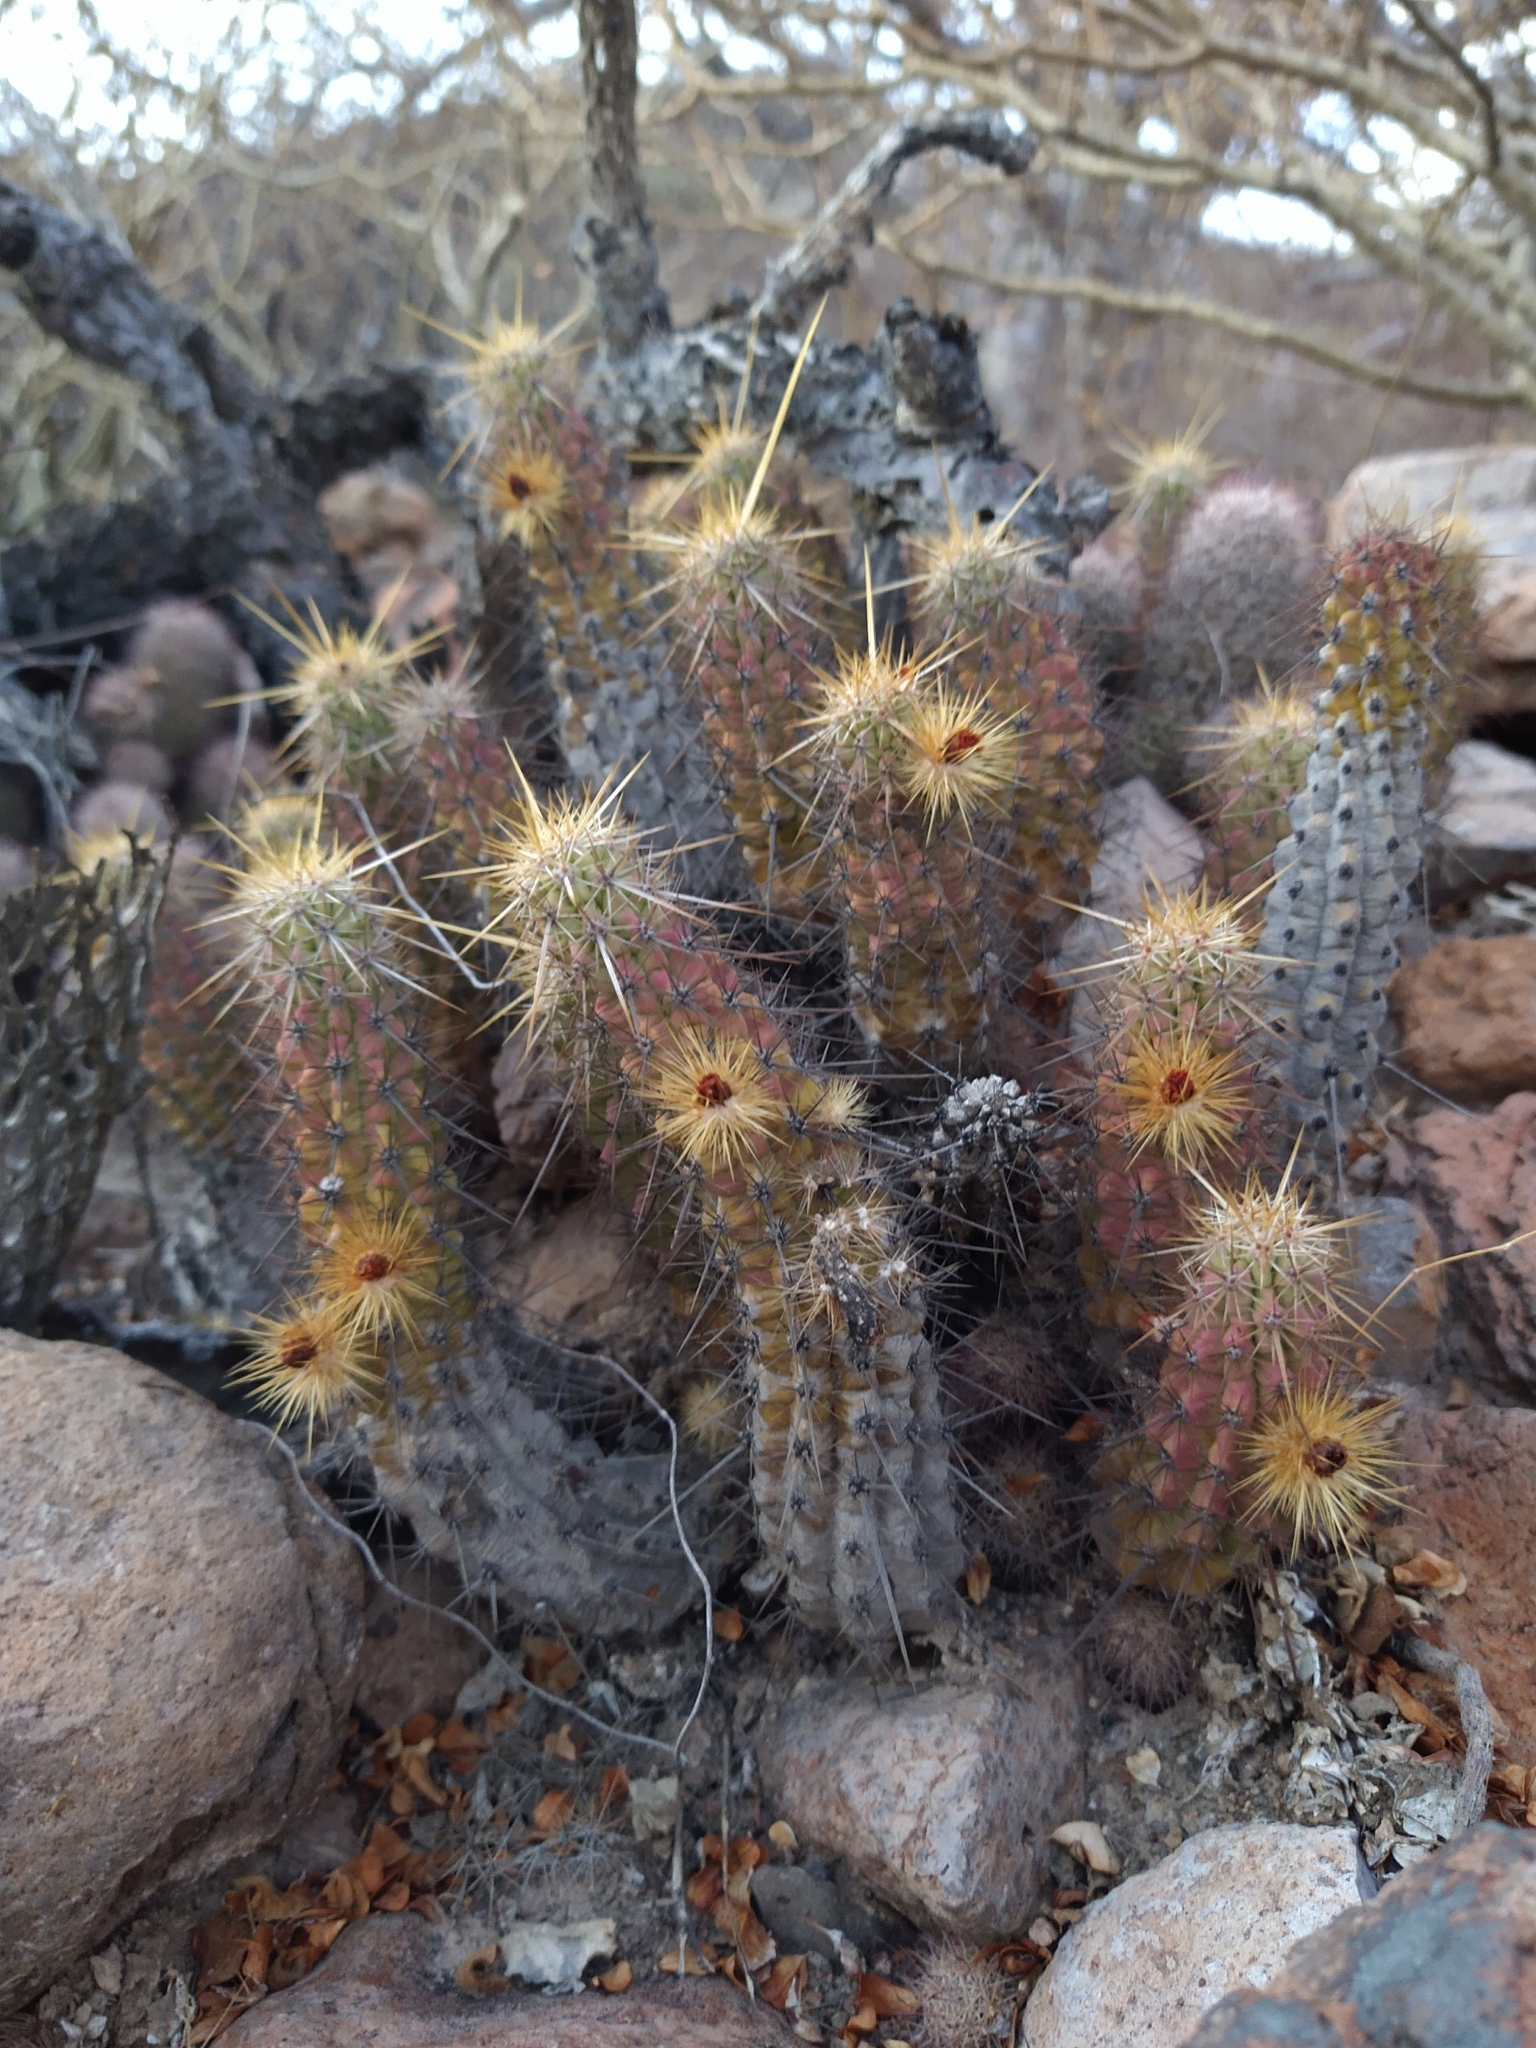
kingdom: Plantae
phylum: Tracheophyta
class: Magnoliopsida
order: Caryophyllales
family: Cactaceae
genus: Echinocereus
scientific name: Echinocereus brandegeei
